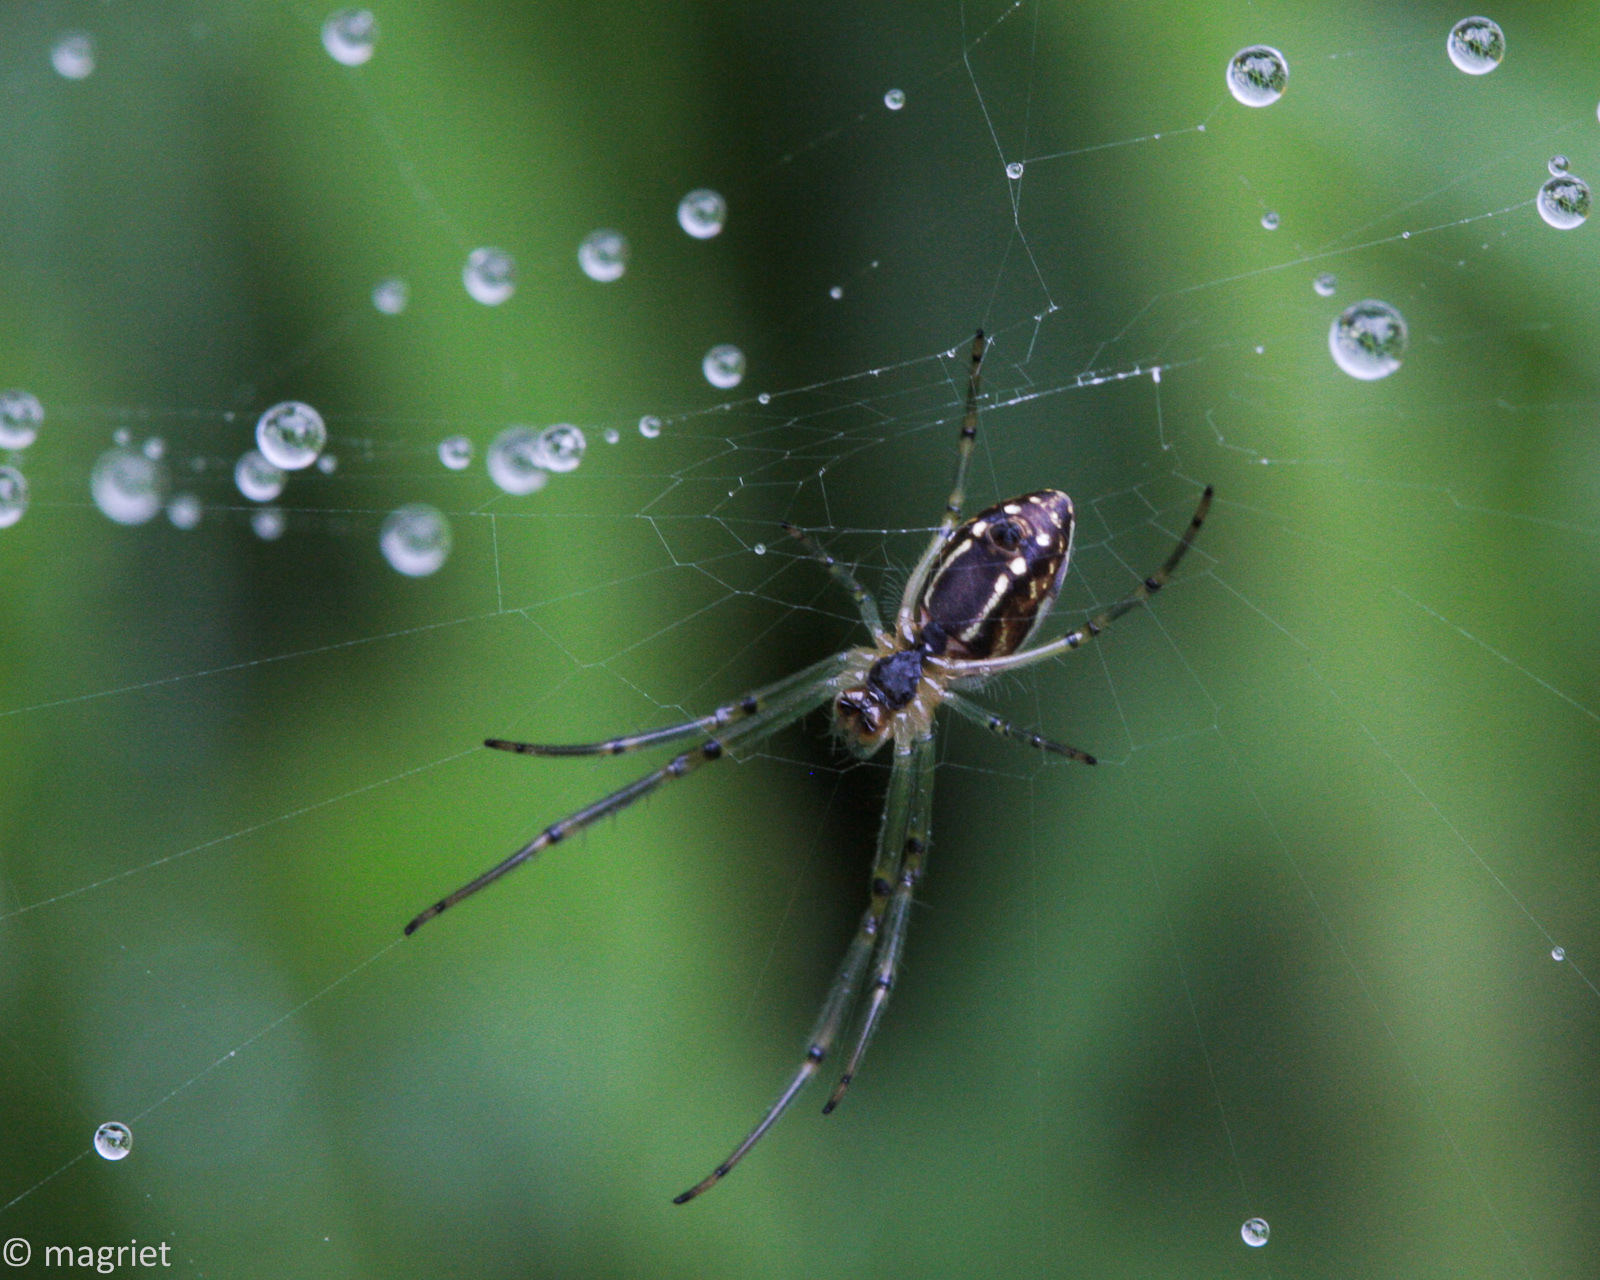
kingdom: Animalia
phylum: Arthropoda
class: Arachnida
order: Araneae
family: Tetragnathidae
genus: Leucauge
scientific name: Leucauge festiva
